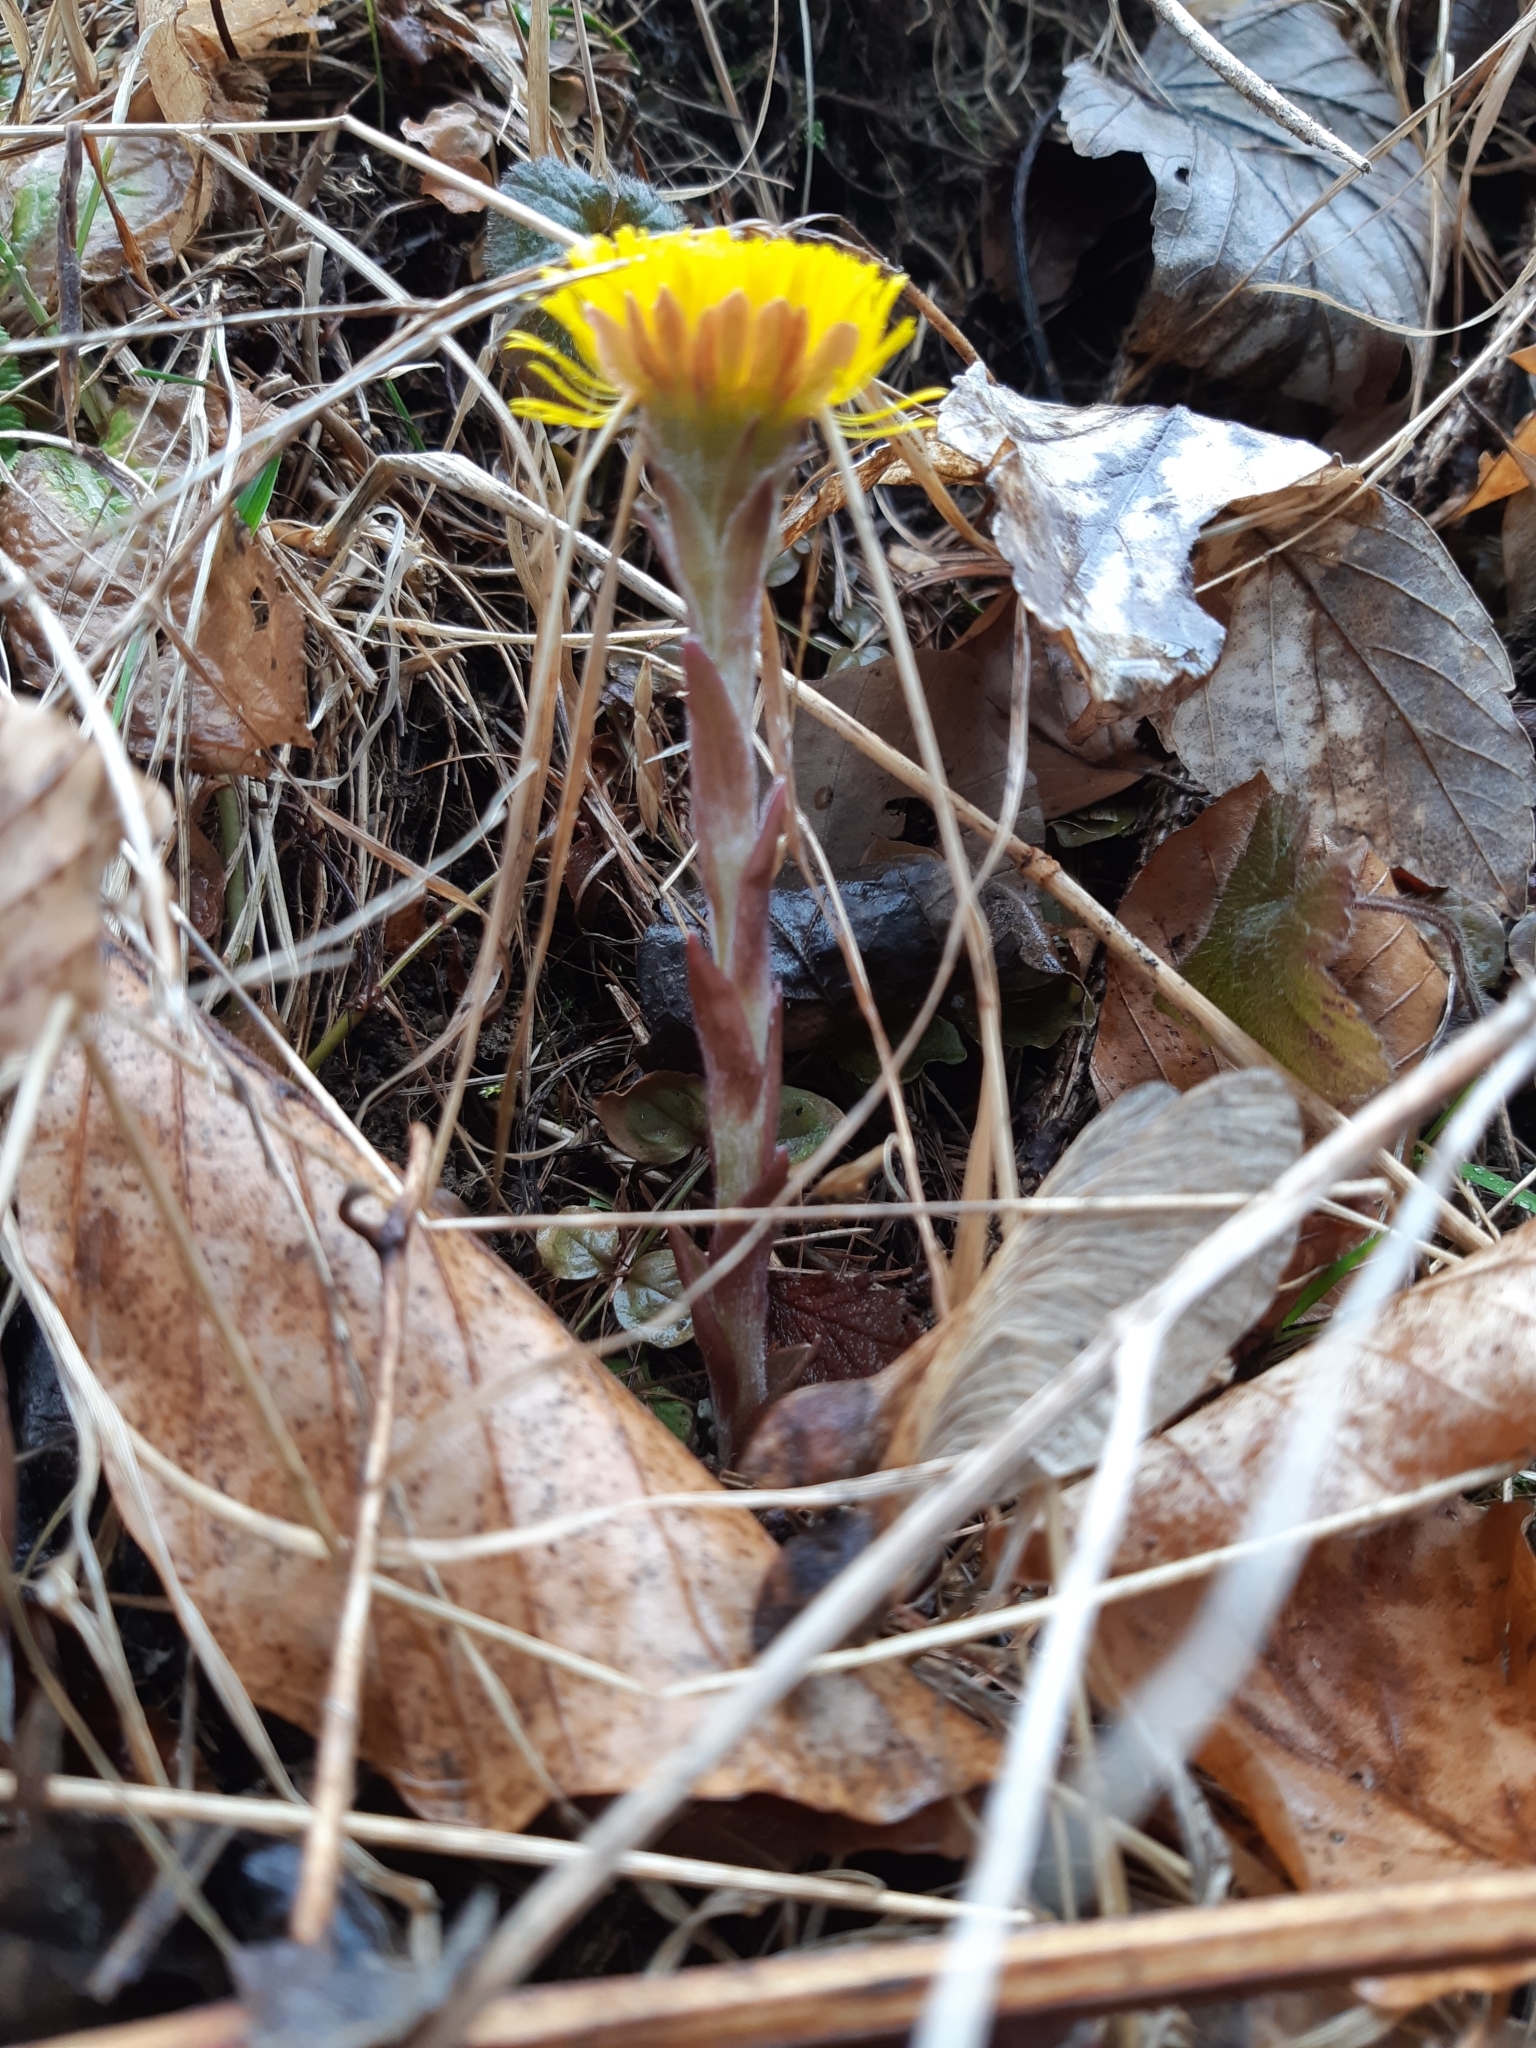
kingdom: Plantae
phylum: Tracheophyta
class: Magnoliopsida
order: Asterales
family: Asteraceae
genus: Tussilago
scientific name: Tussilago farfara
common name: Coltsfoot
